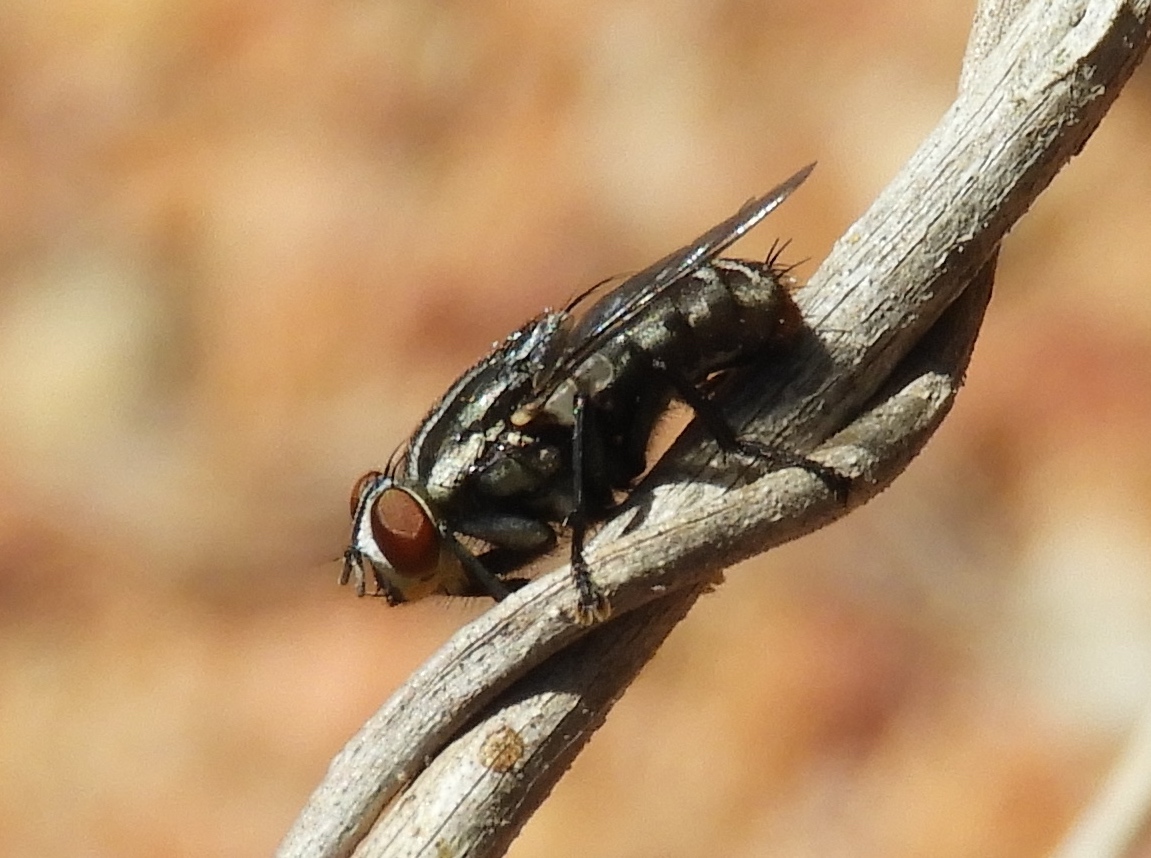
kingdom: Animalia
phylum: Arthropoda
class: Insecta
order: Diptera
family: Sarcophagidae
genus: Sarcophaga
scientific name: Sarcophaga
